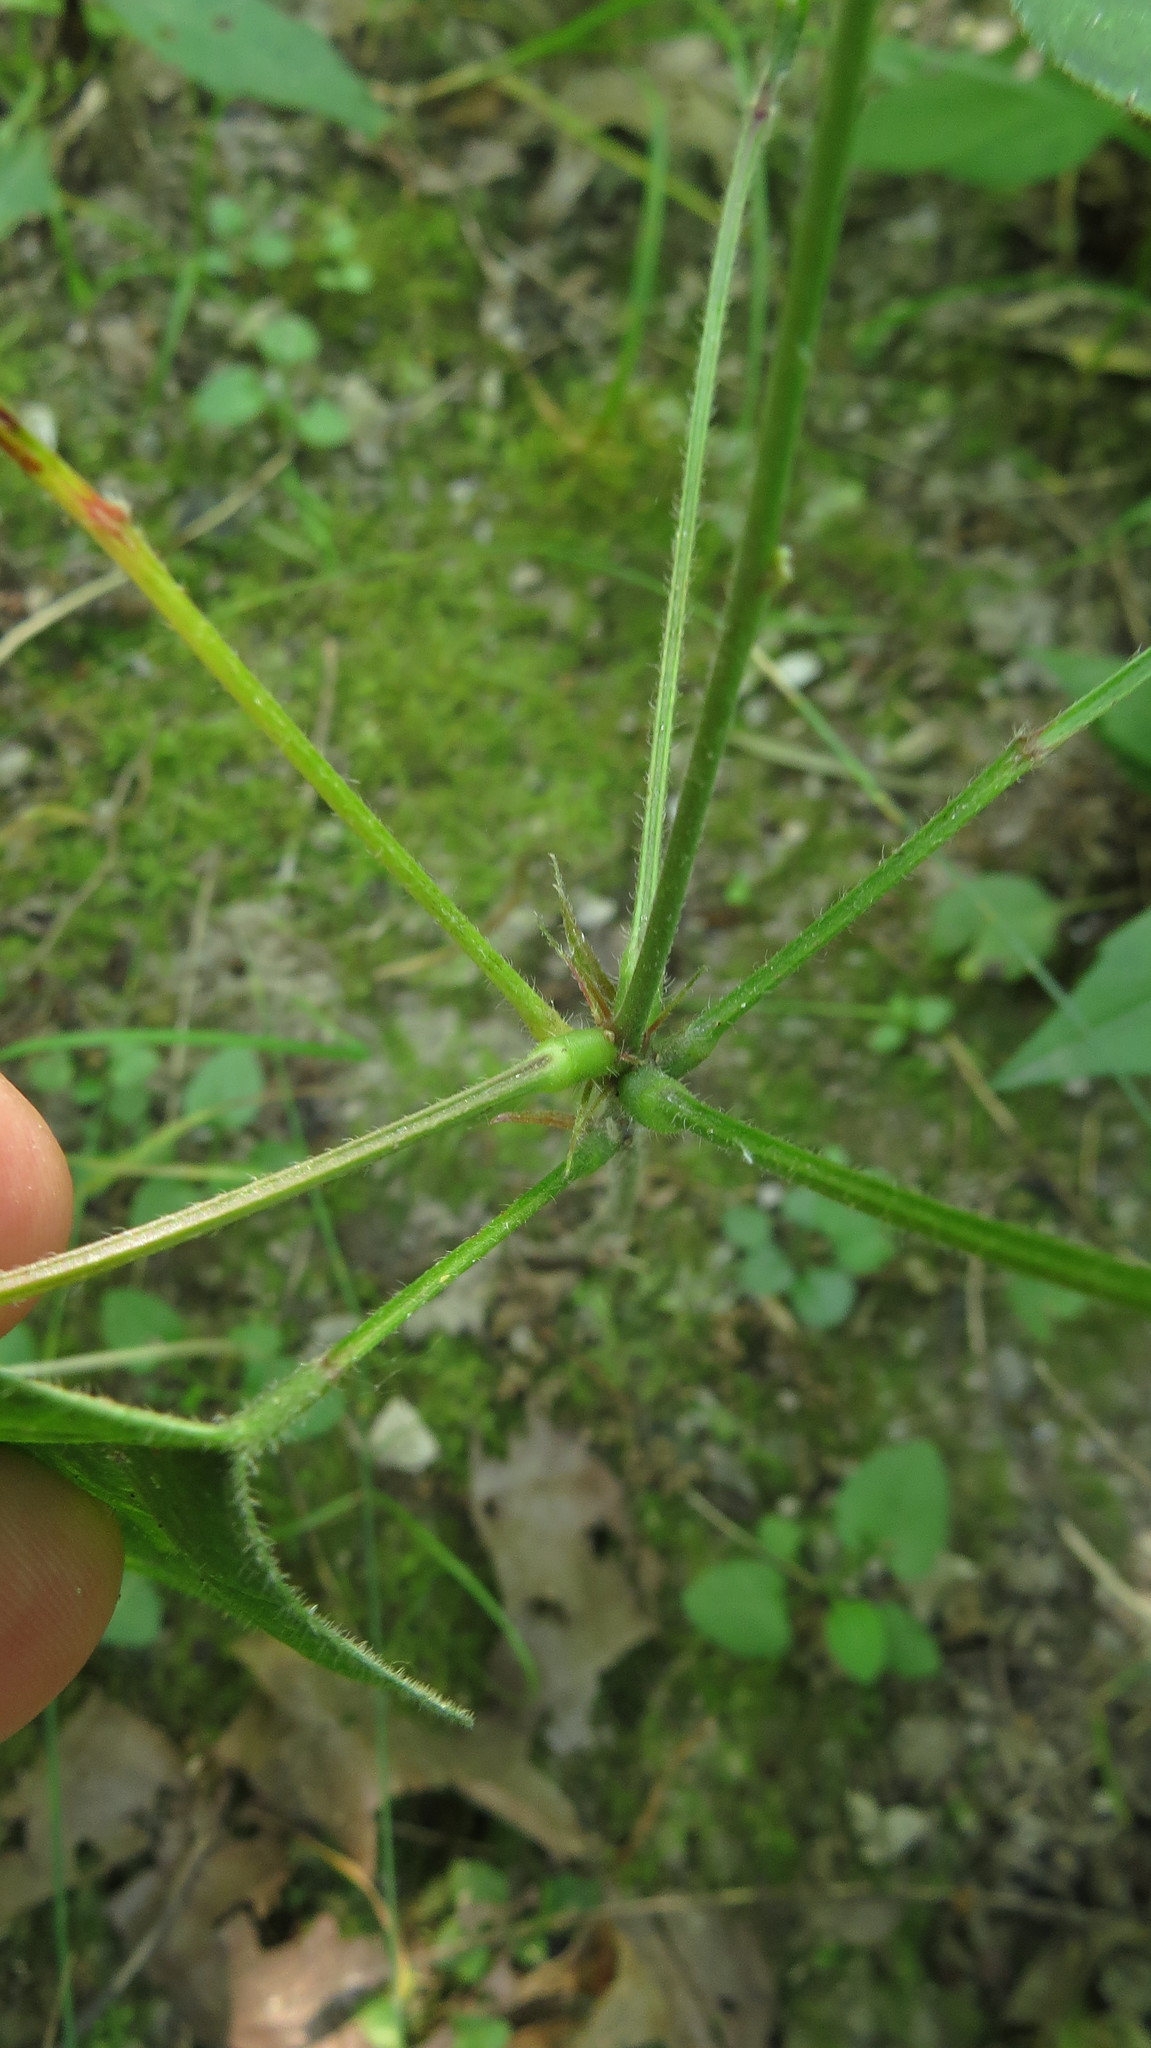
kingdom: Plantae
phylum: Tracheophyta
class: Magnoliopsida
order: Fabales
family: Fabaceae
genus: Hylodesmum
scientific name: Hylodesmum glutinosum
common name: Clustered-leaved tick-trefoil
